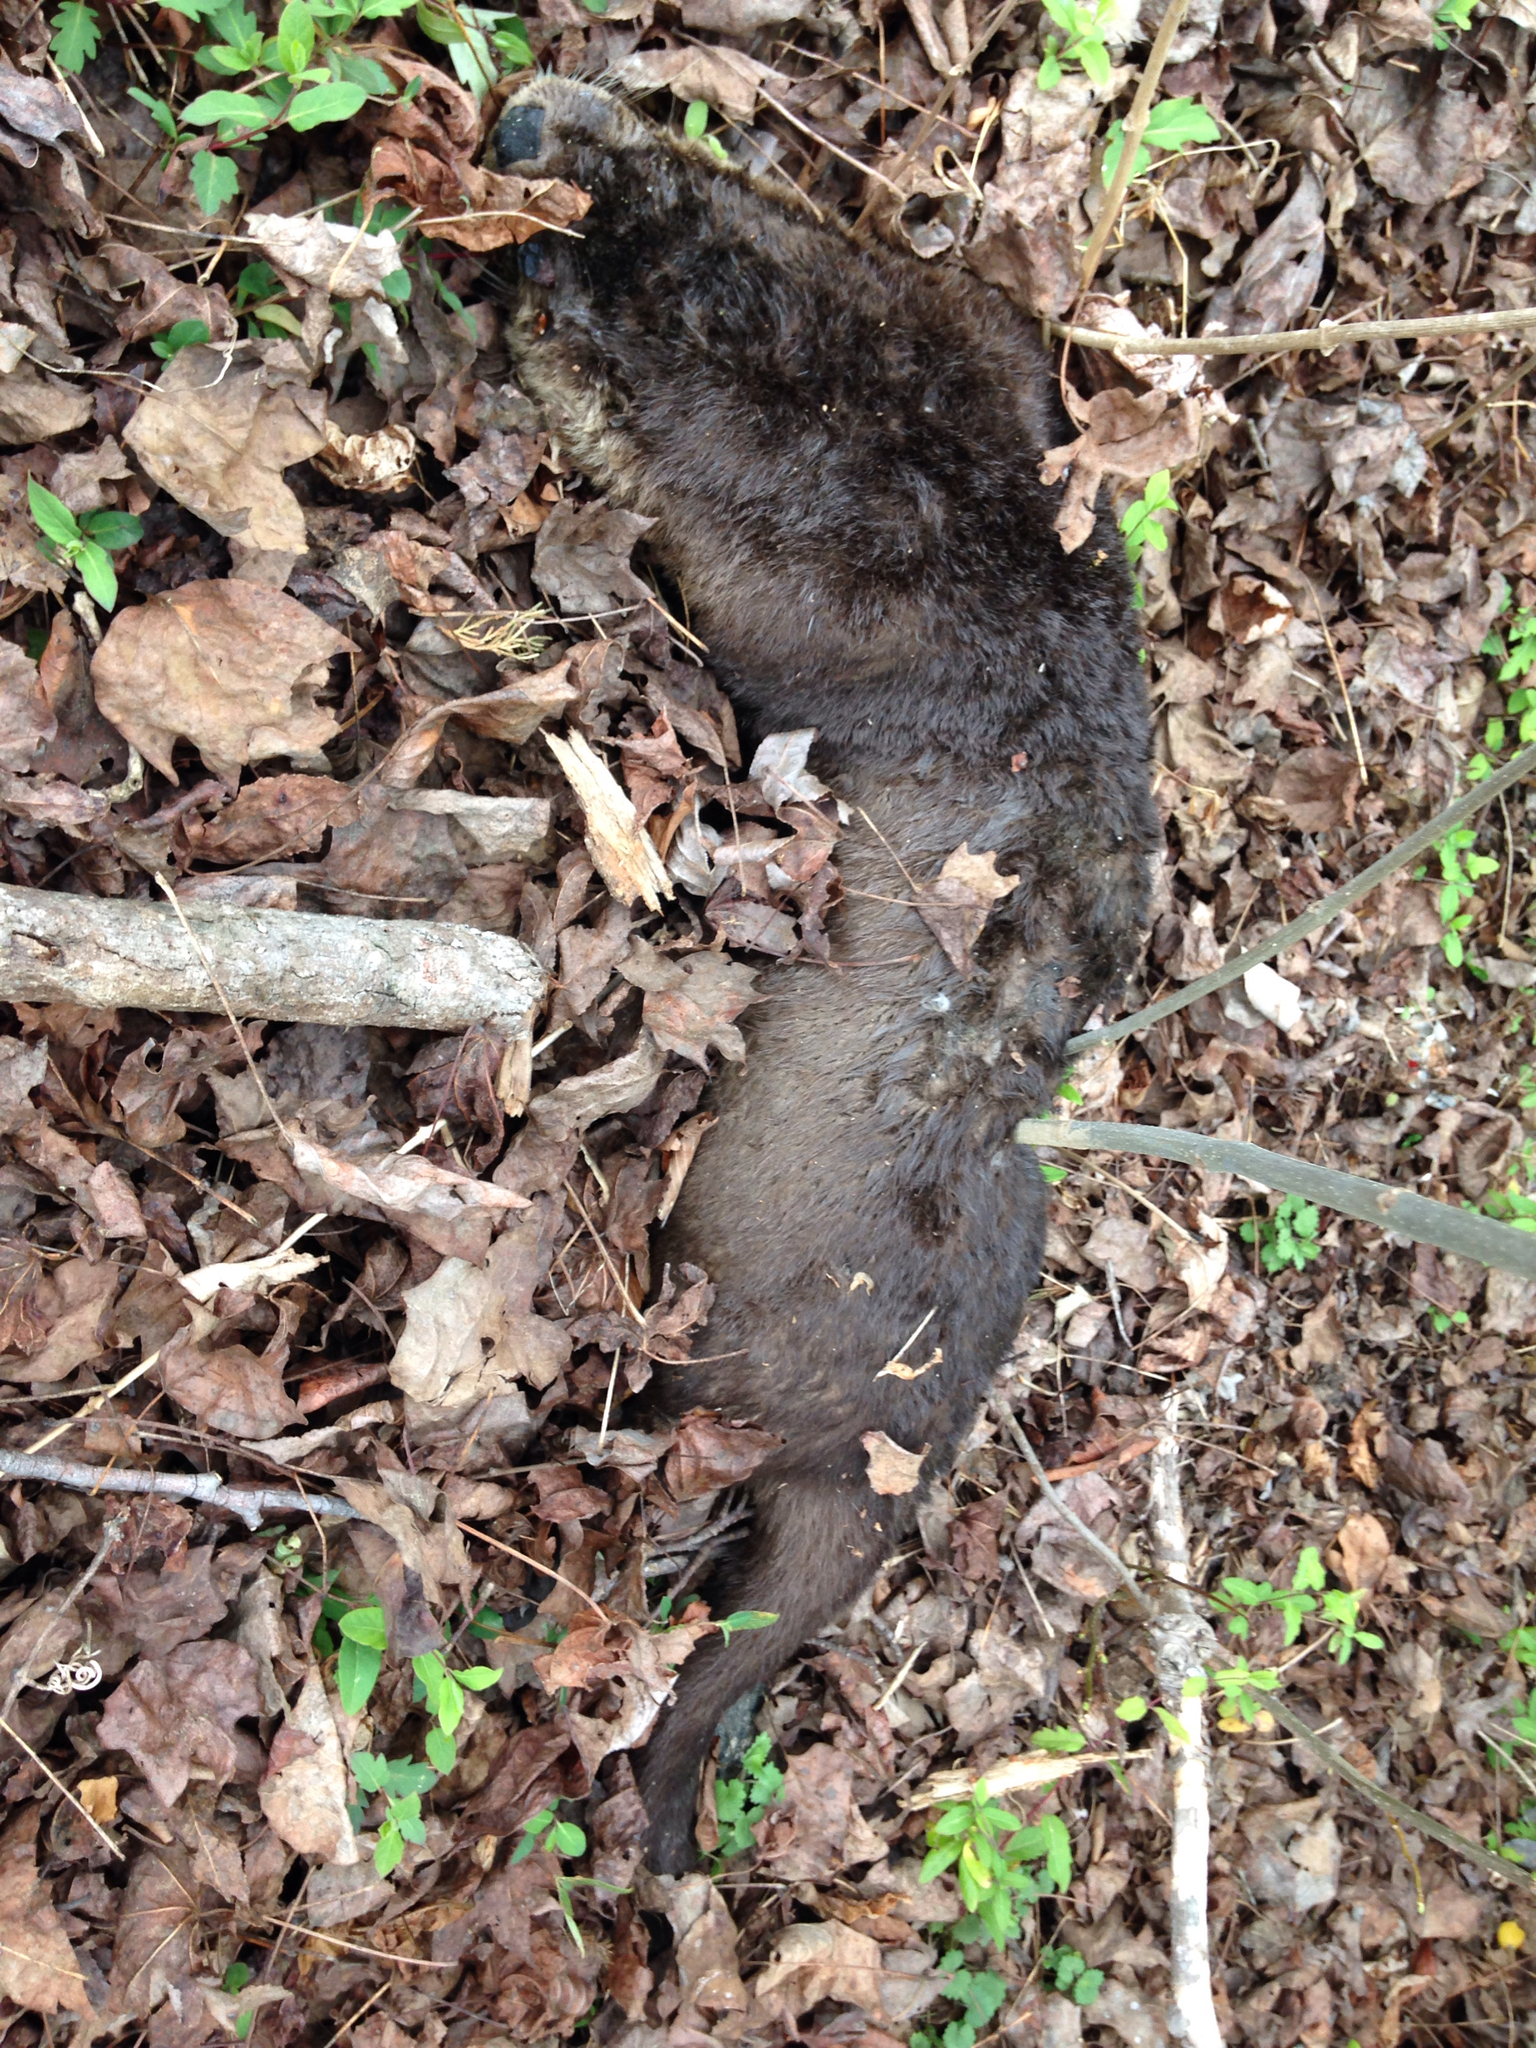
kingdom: Animalia
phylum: Chordata
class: Mammalia
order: Carnivora
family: Mustelidae
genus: Lontra
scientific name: Lontra canadensis
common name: North american river otter
